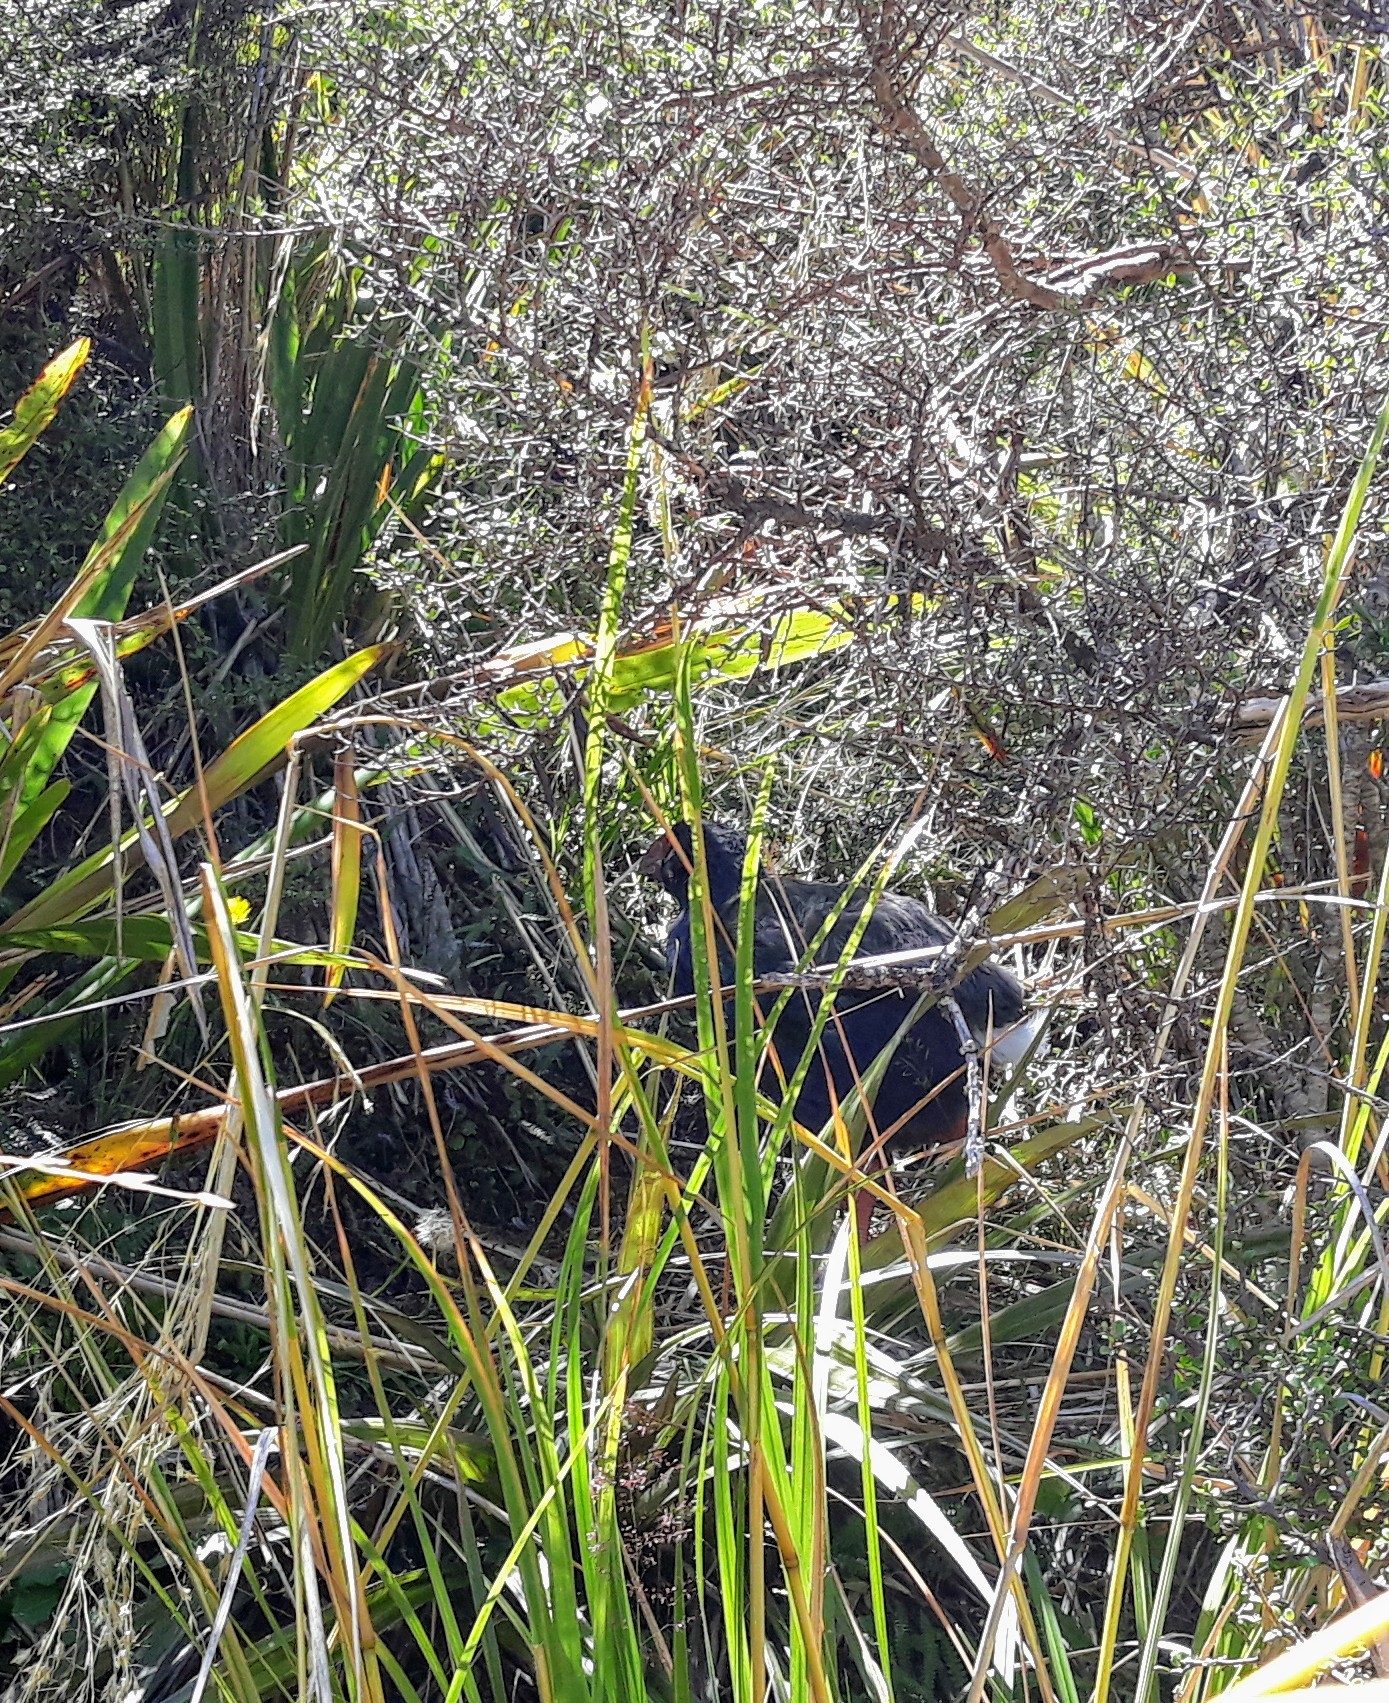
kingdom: Animalia
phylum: Chordata
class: Aves
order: Gruiformes
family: Rallidae
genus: Porphyrio
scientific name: Porphyrio hochstetteri
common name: South island takahe
